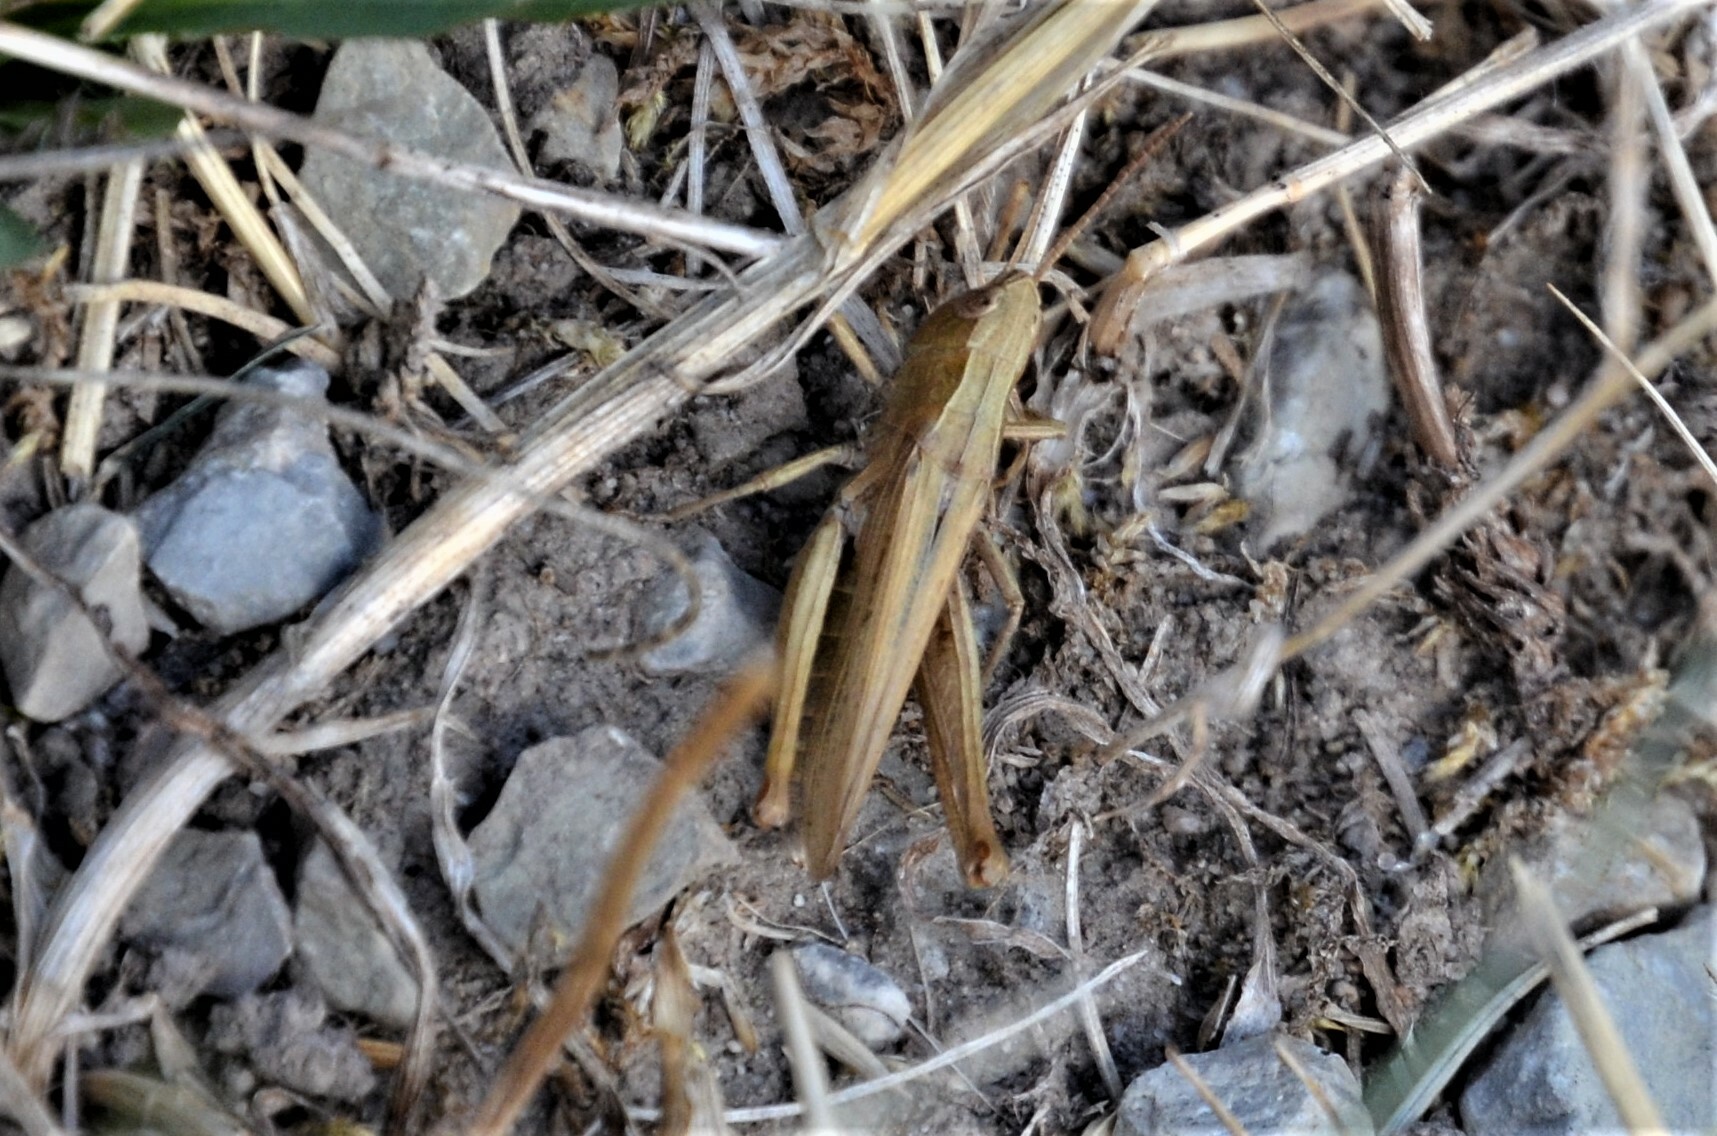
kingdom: Animalia
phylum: Arthropoda
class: Insecta
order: Orthoptera
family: Acrididae
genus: Chorthippus
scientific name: Chorthippus dorsatus
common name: Steppe grasshopper
